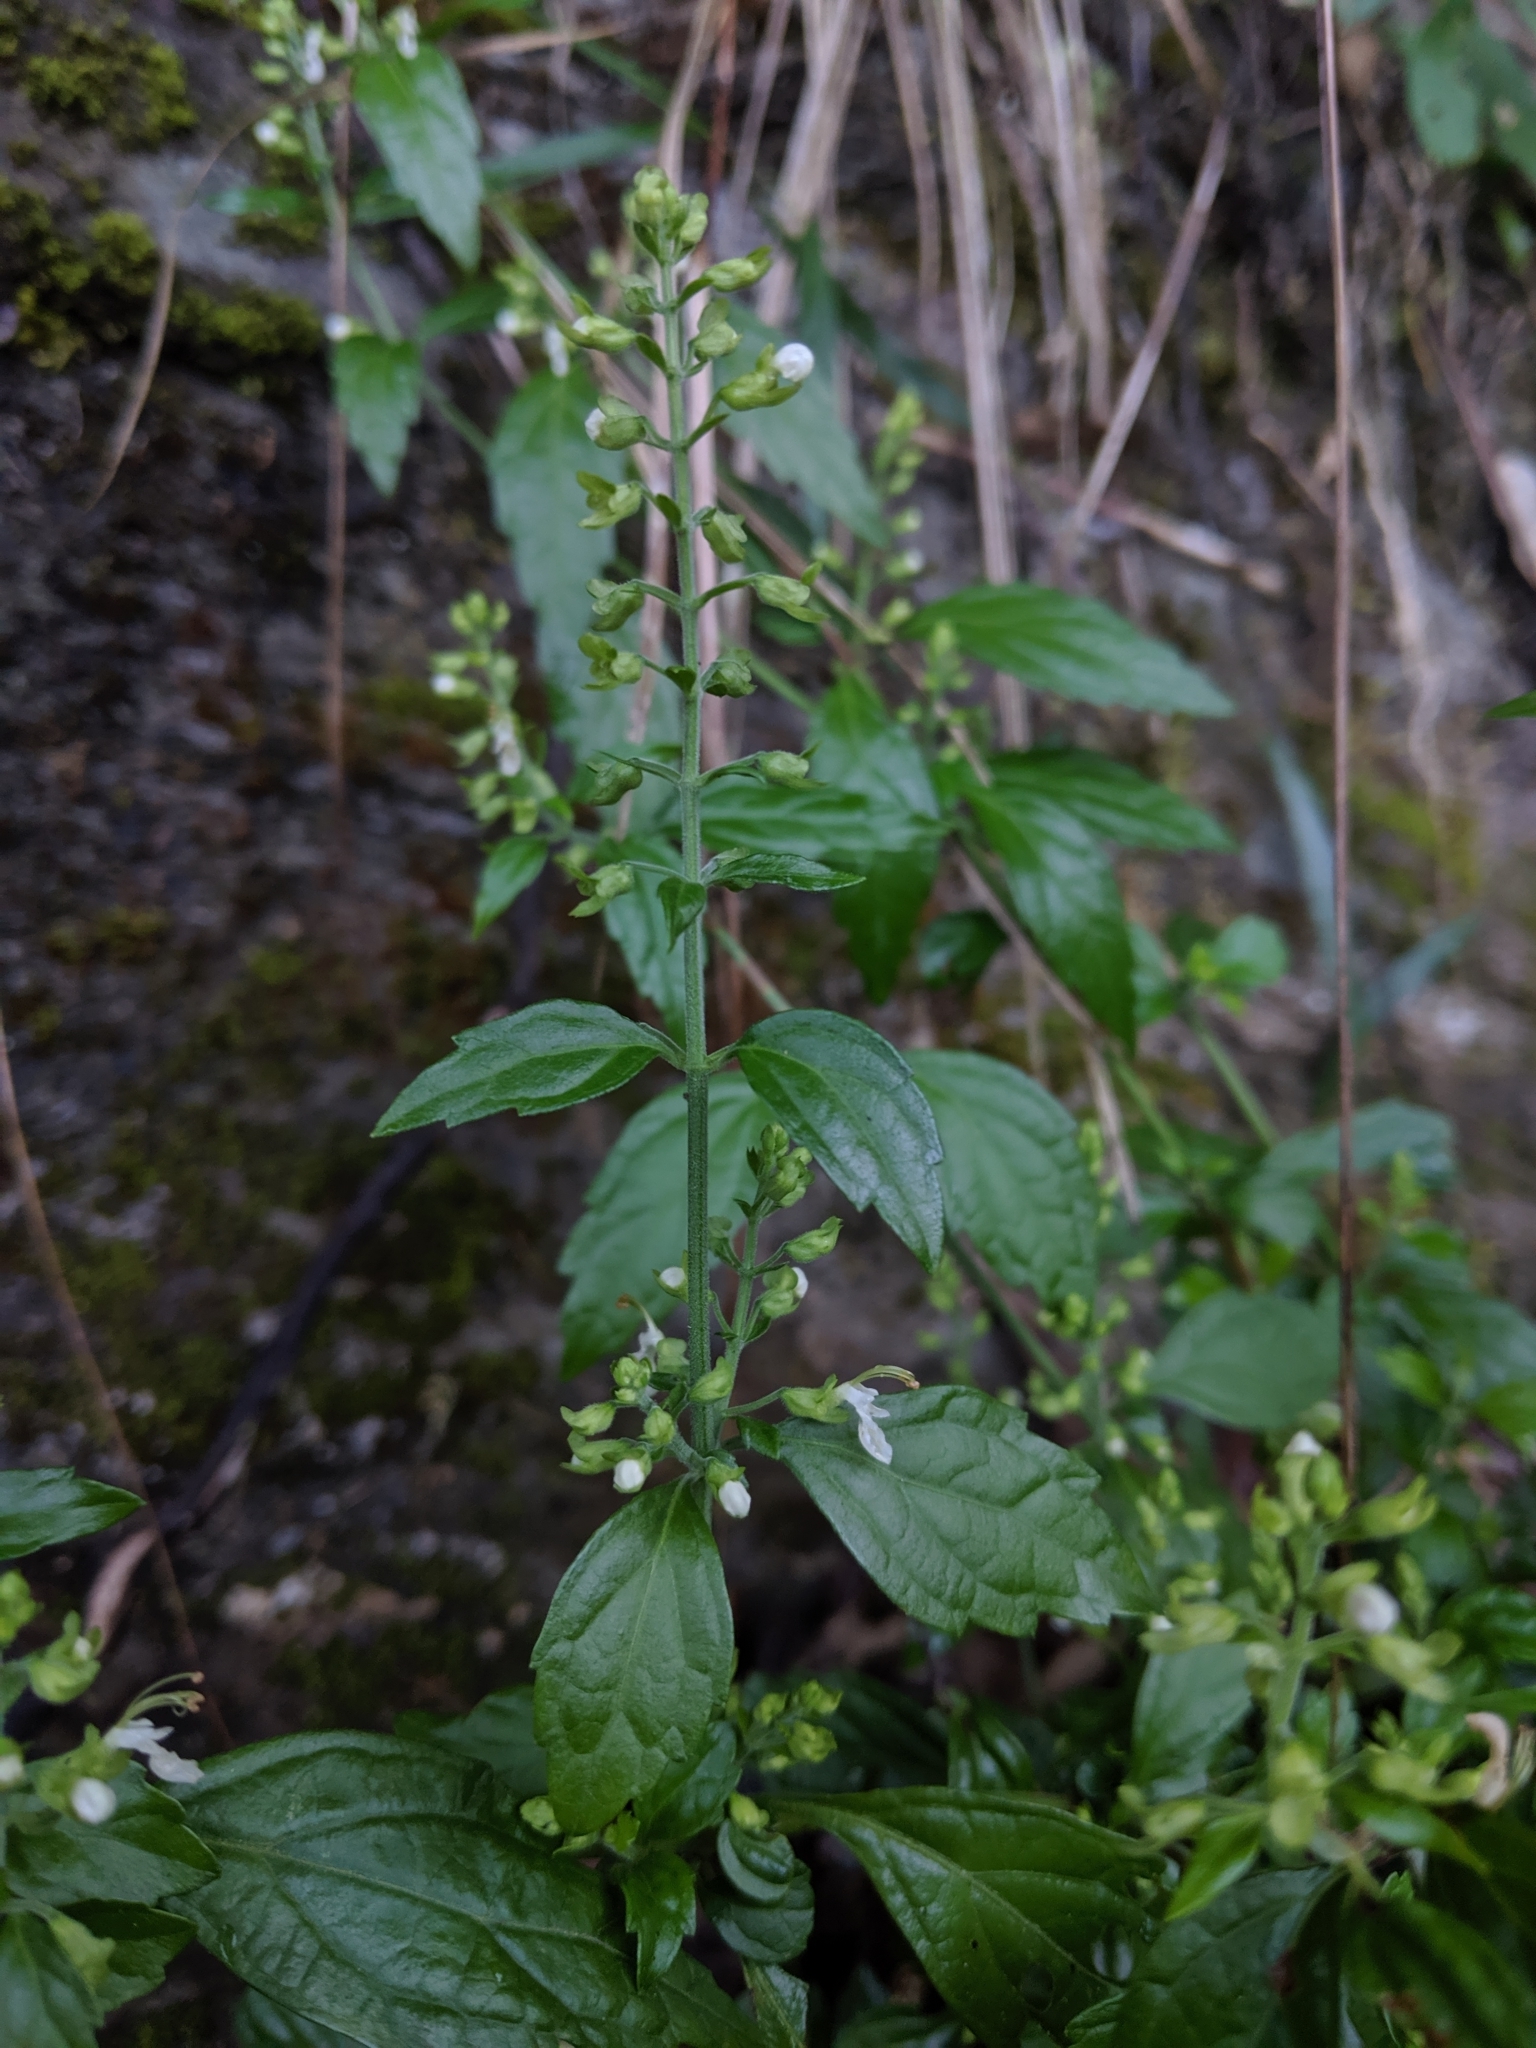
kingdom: Plantae
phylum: Tracheophyta
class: Magnoliopsida
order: Lamiales
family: Lamiaceae
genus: Teucrium
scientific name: Teucrium bidentatum
